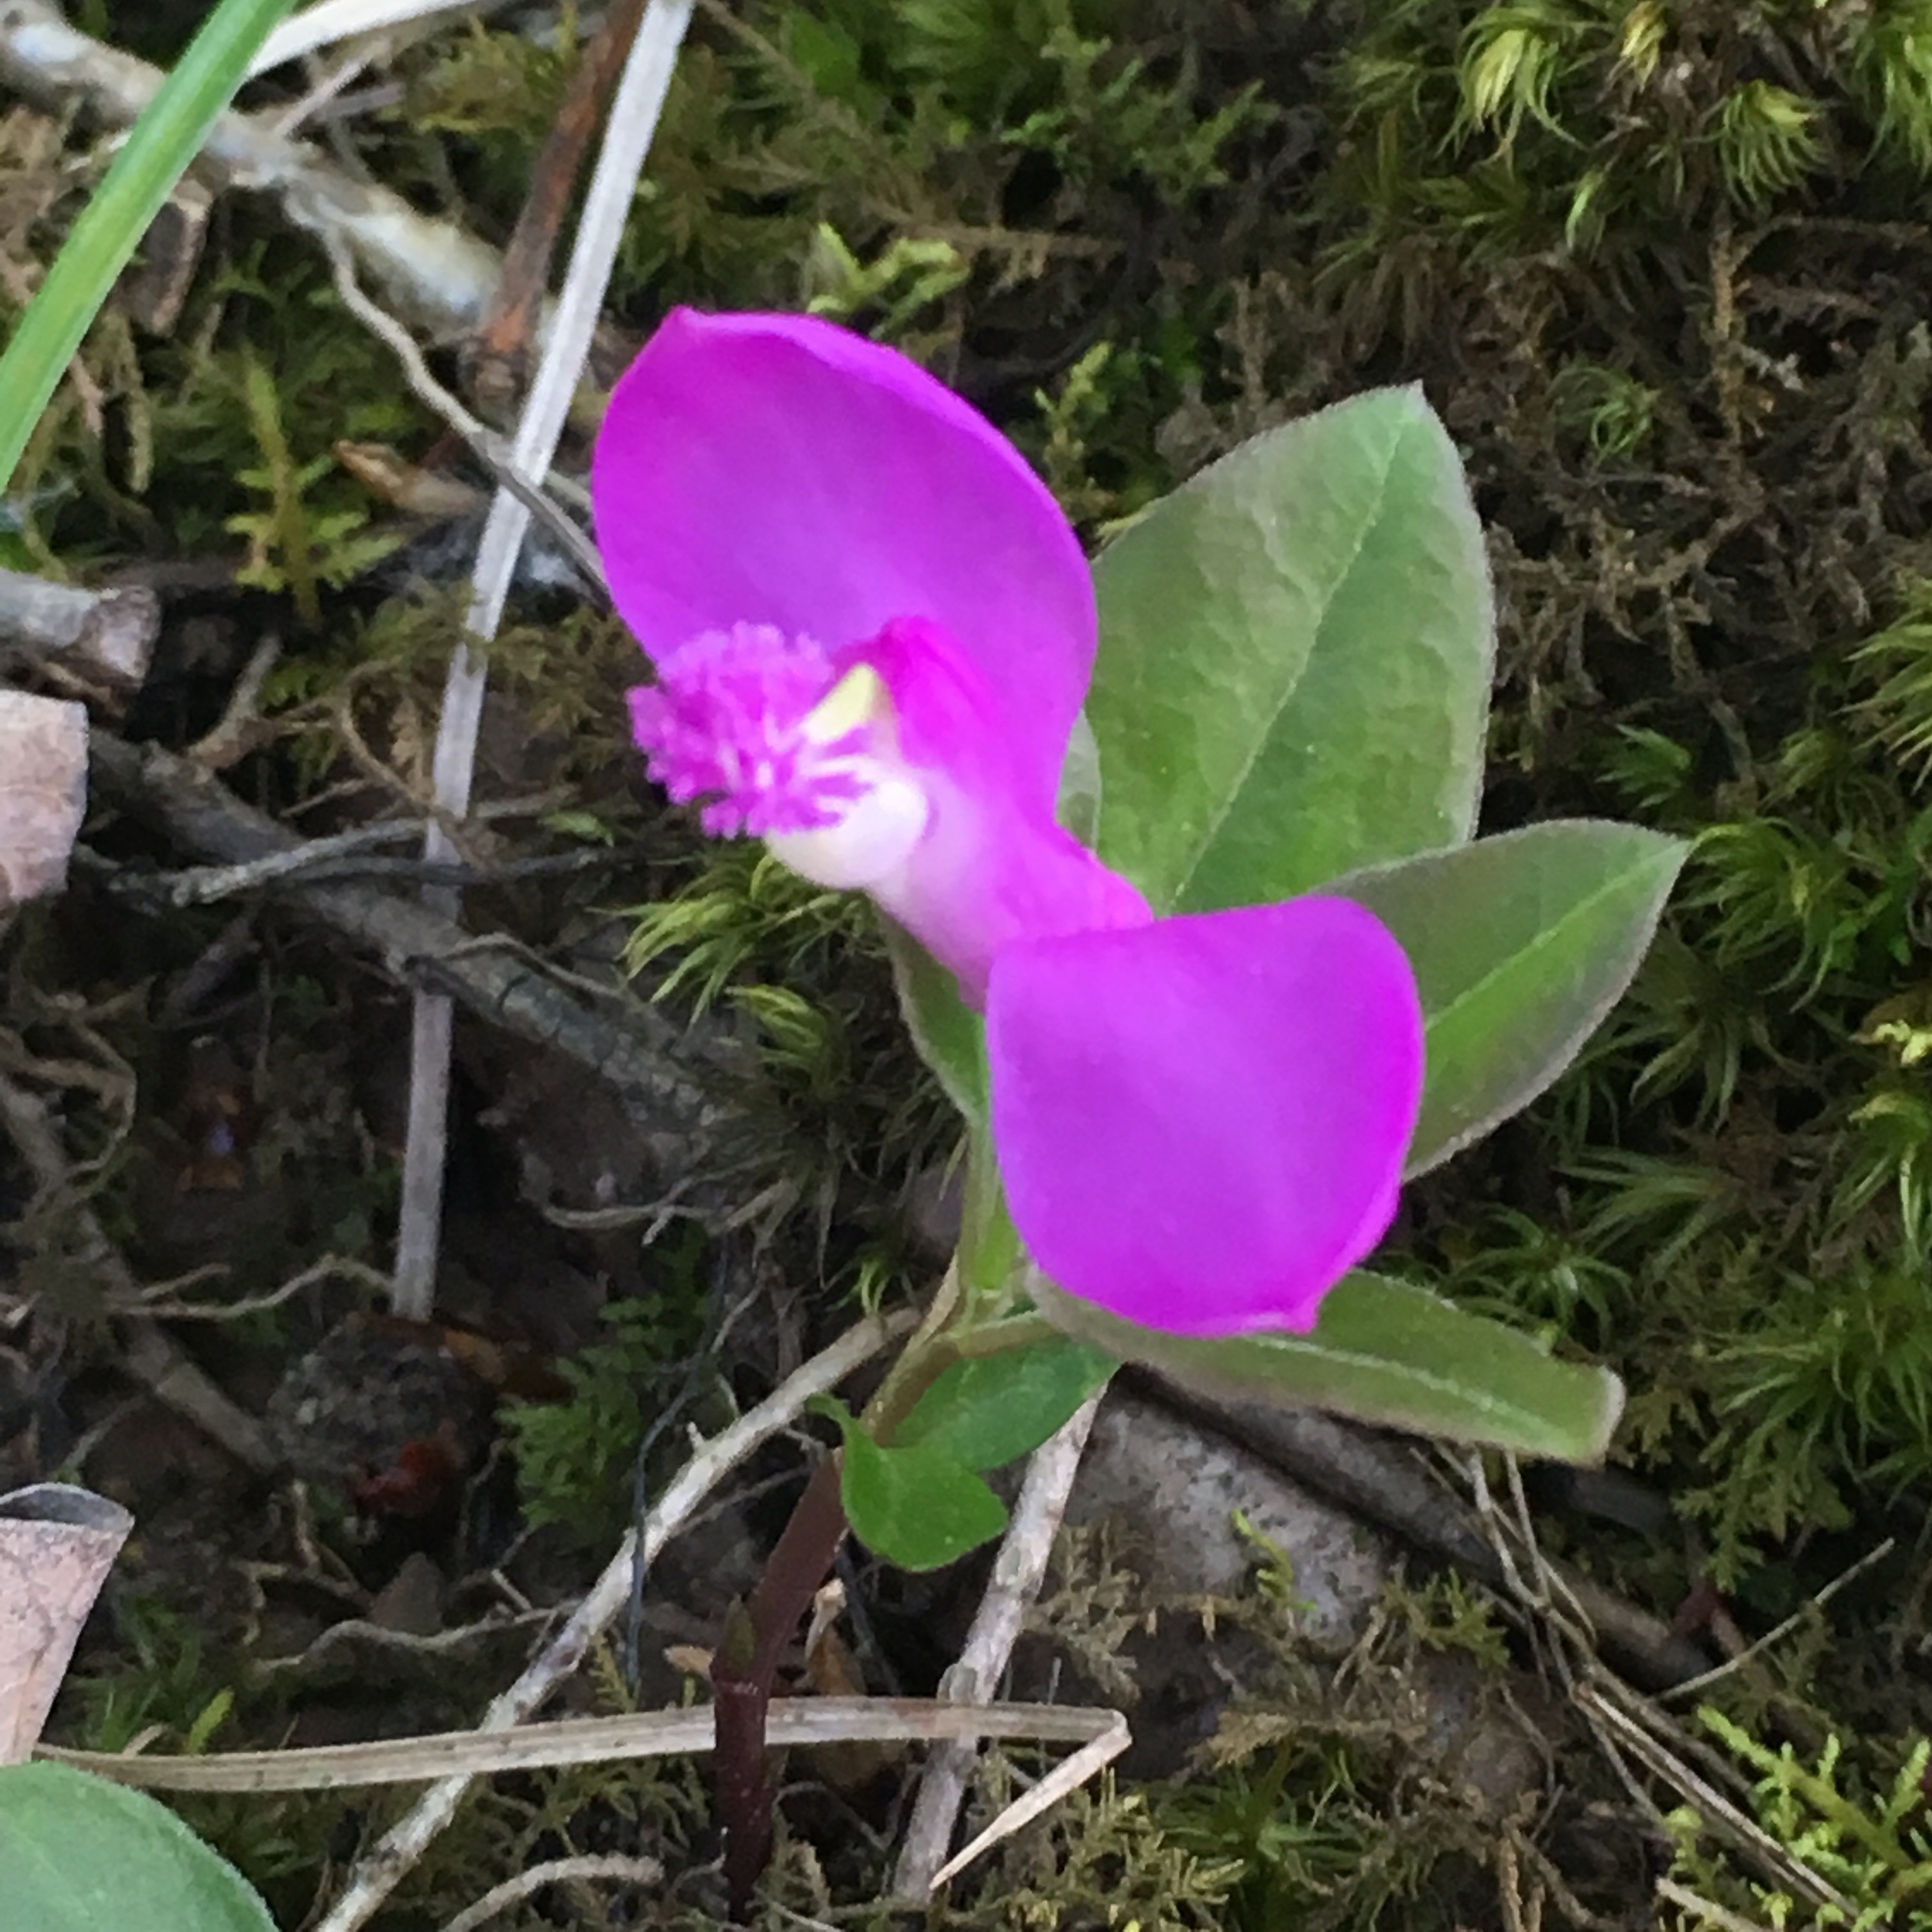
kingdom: Plantae
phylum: Tracheophyta
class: Magnoliopsida
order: Fabales
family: Polygalaceae
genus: Polygaloides
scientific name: Polygaloides paucifolia
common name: Bird-on-the-wing
